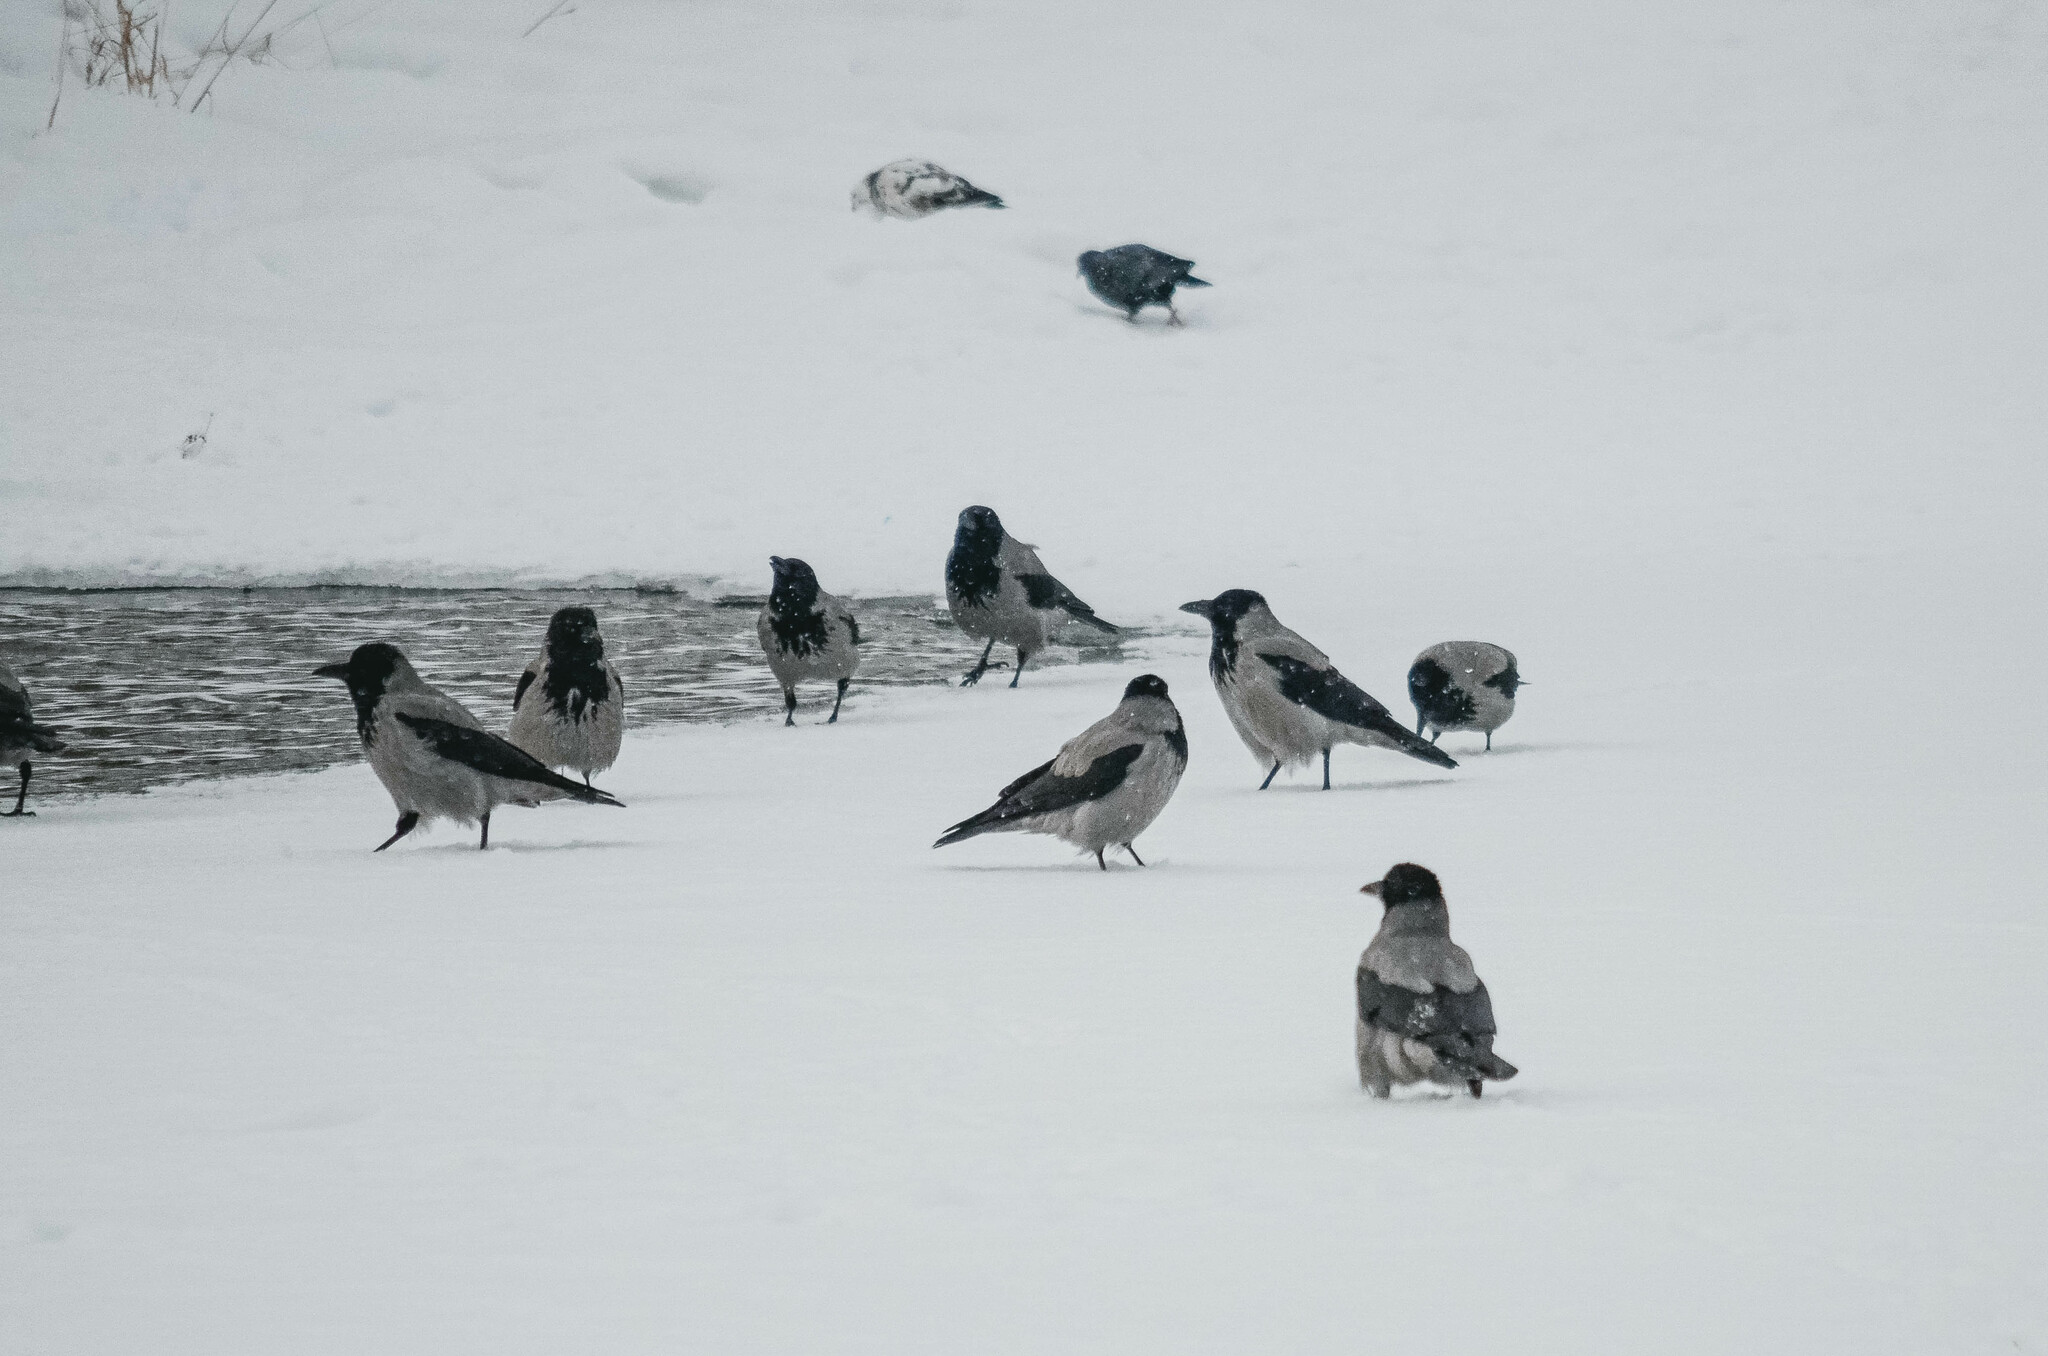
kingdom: Animalia
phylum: Chordata
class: Aves
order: Passeriformes
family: Corvidae
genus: Corvus
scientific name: Corvus cornix
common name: Hooded crow
